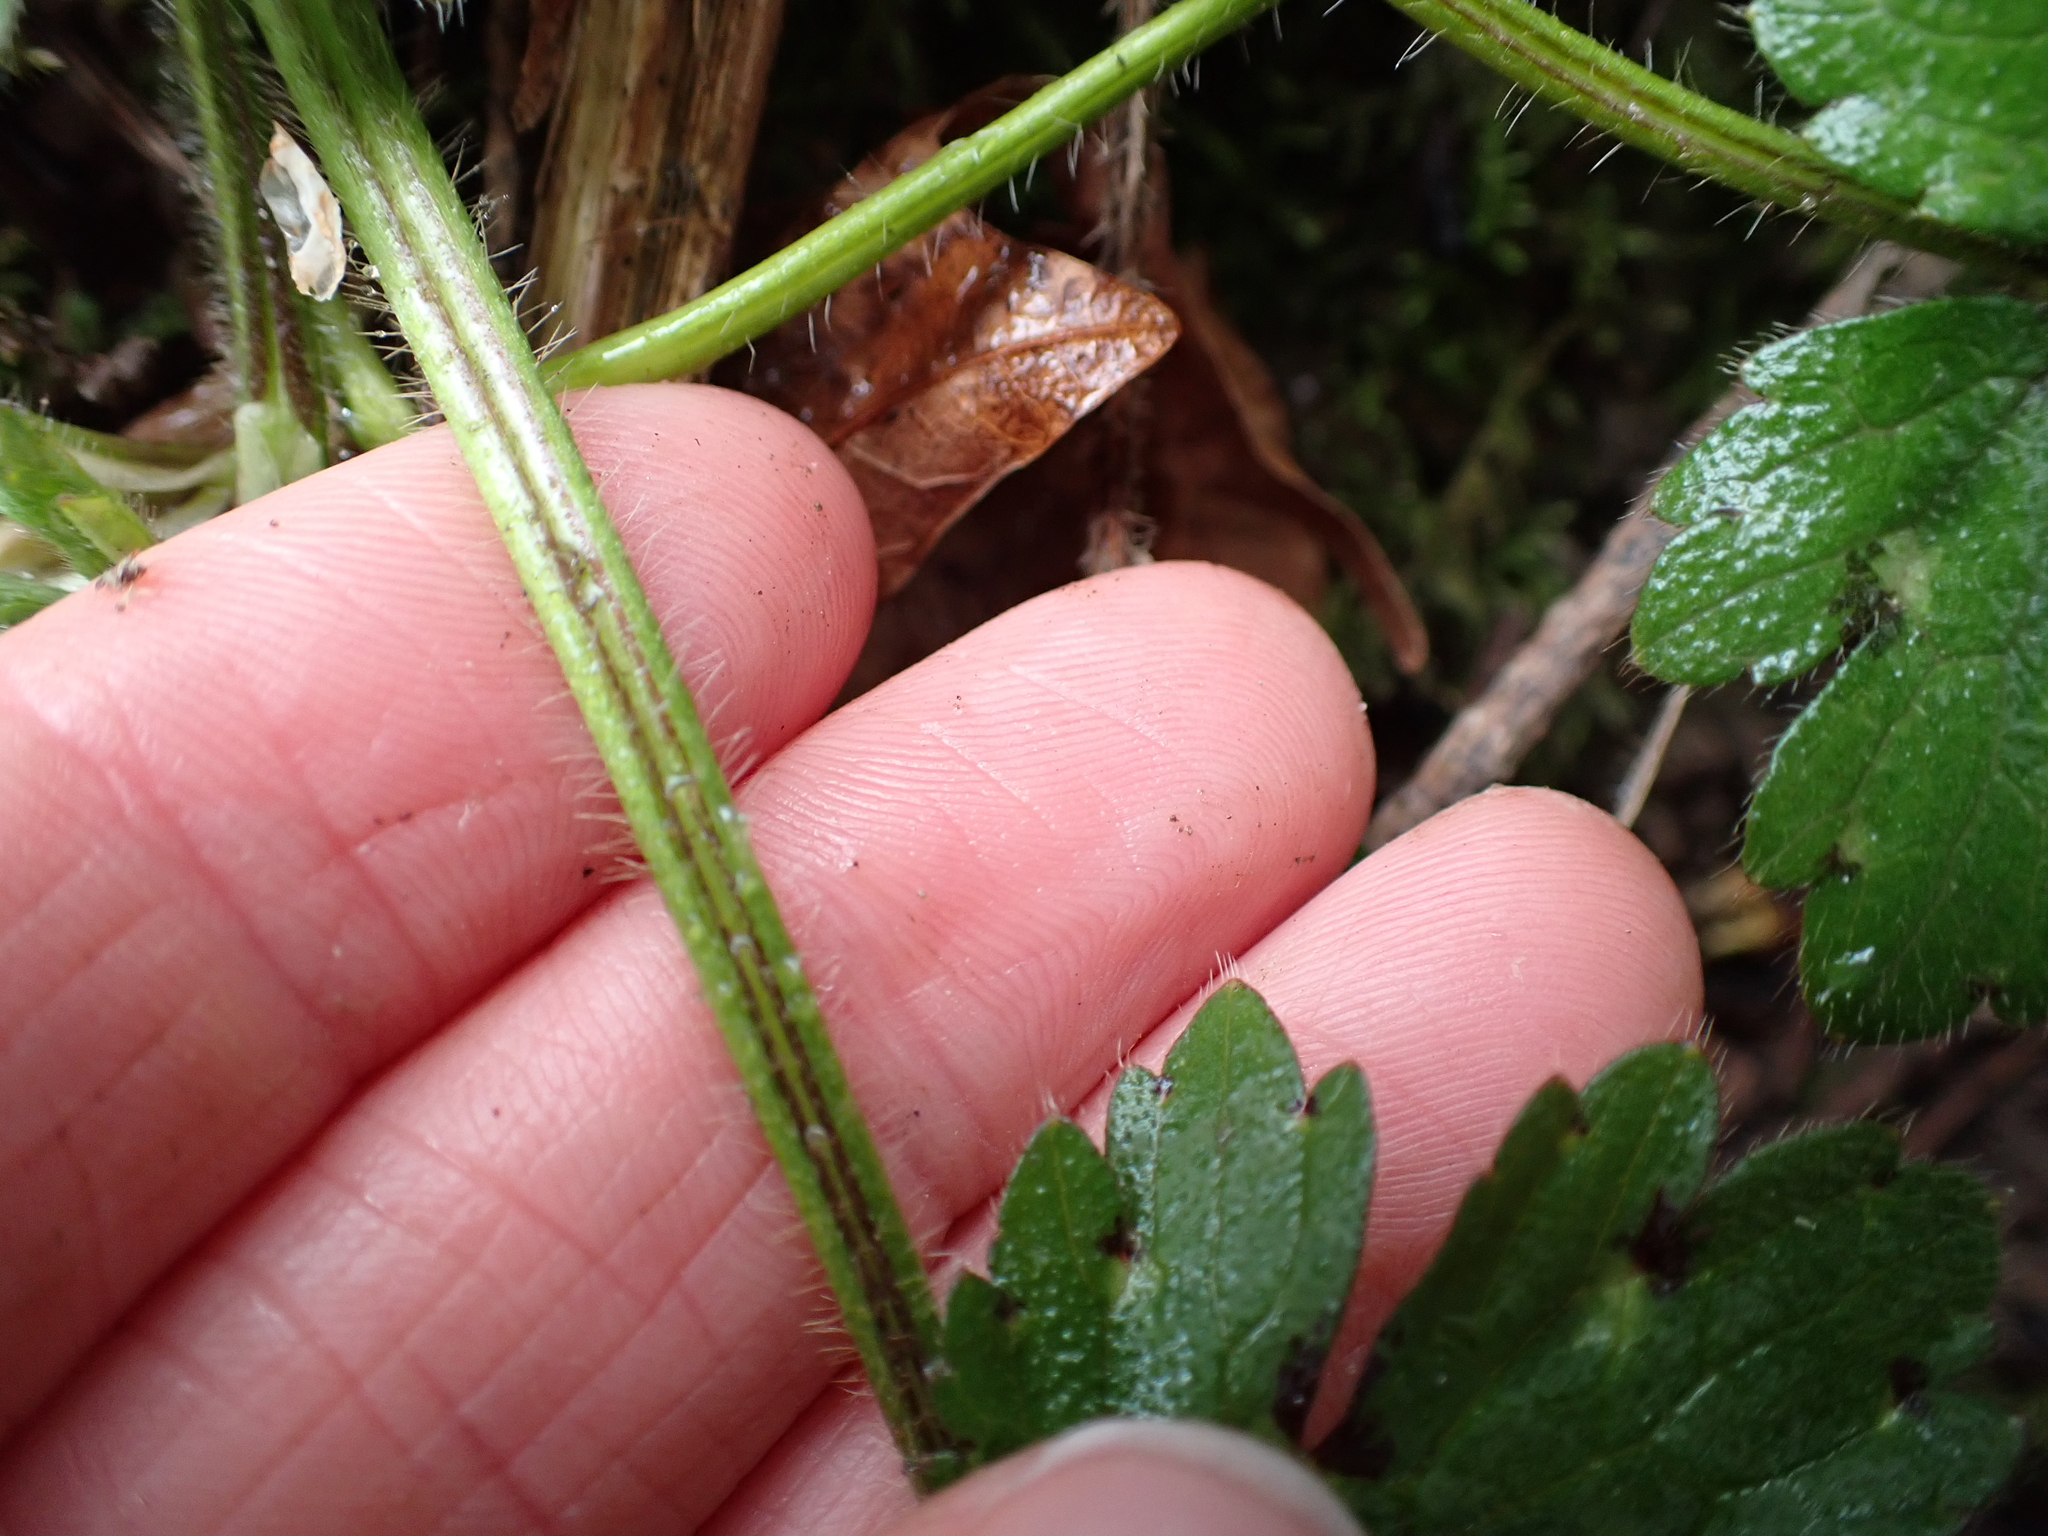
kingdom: Plantae
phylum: Tracheophyta
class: Magnoliopsida
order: Ranunculales
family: Ranunculaceae
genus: Ranunculus
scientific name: Ranunculus repens
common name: Creeping buttercup
